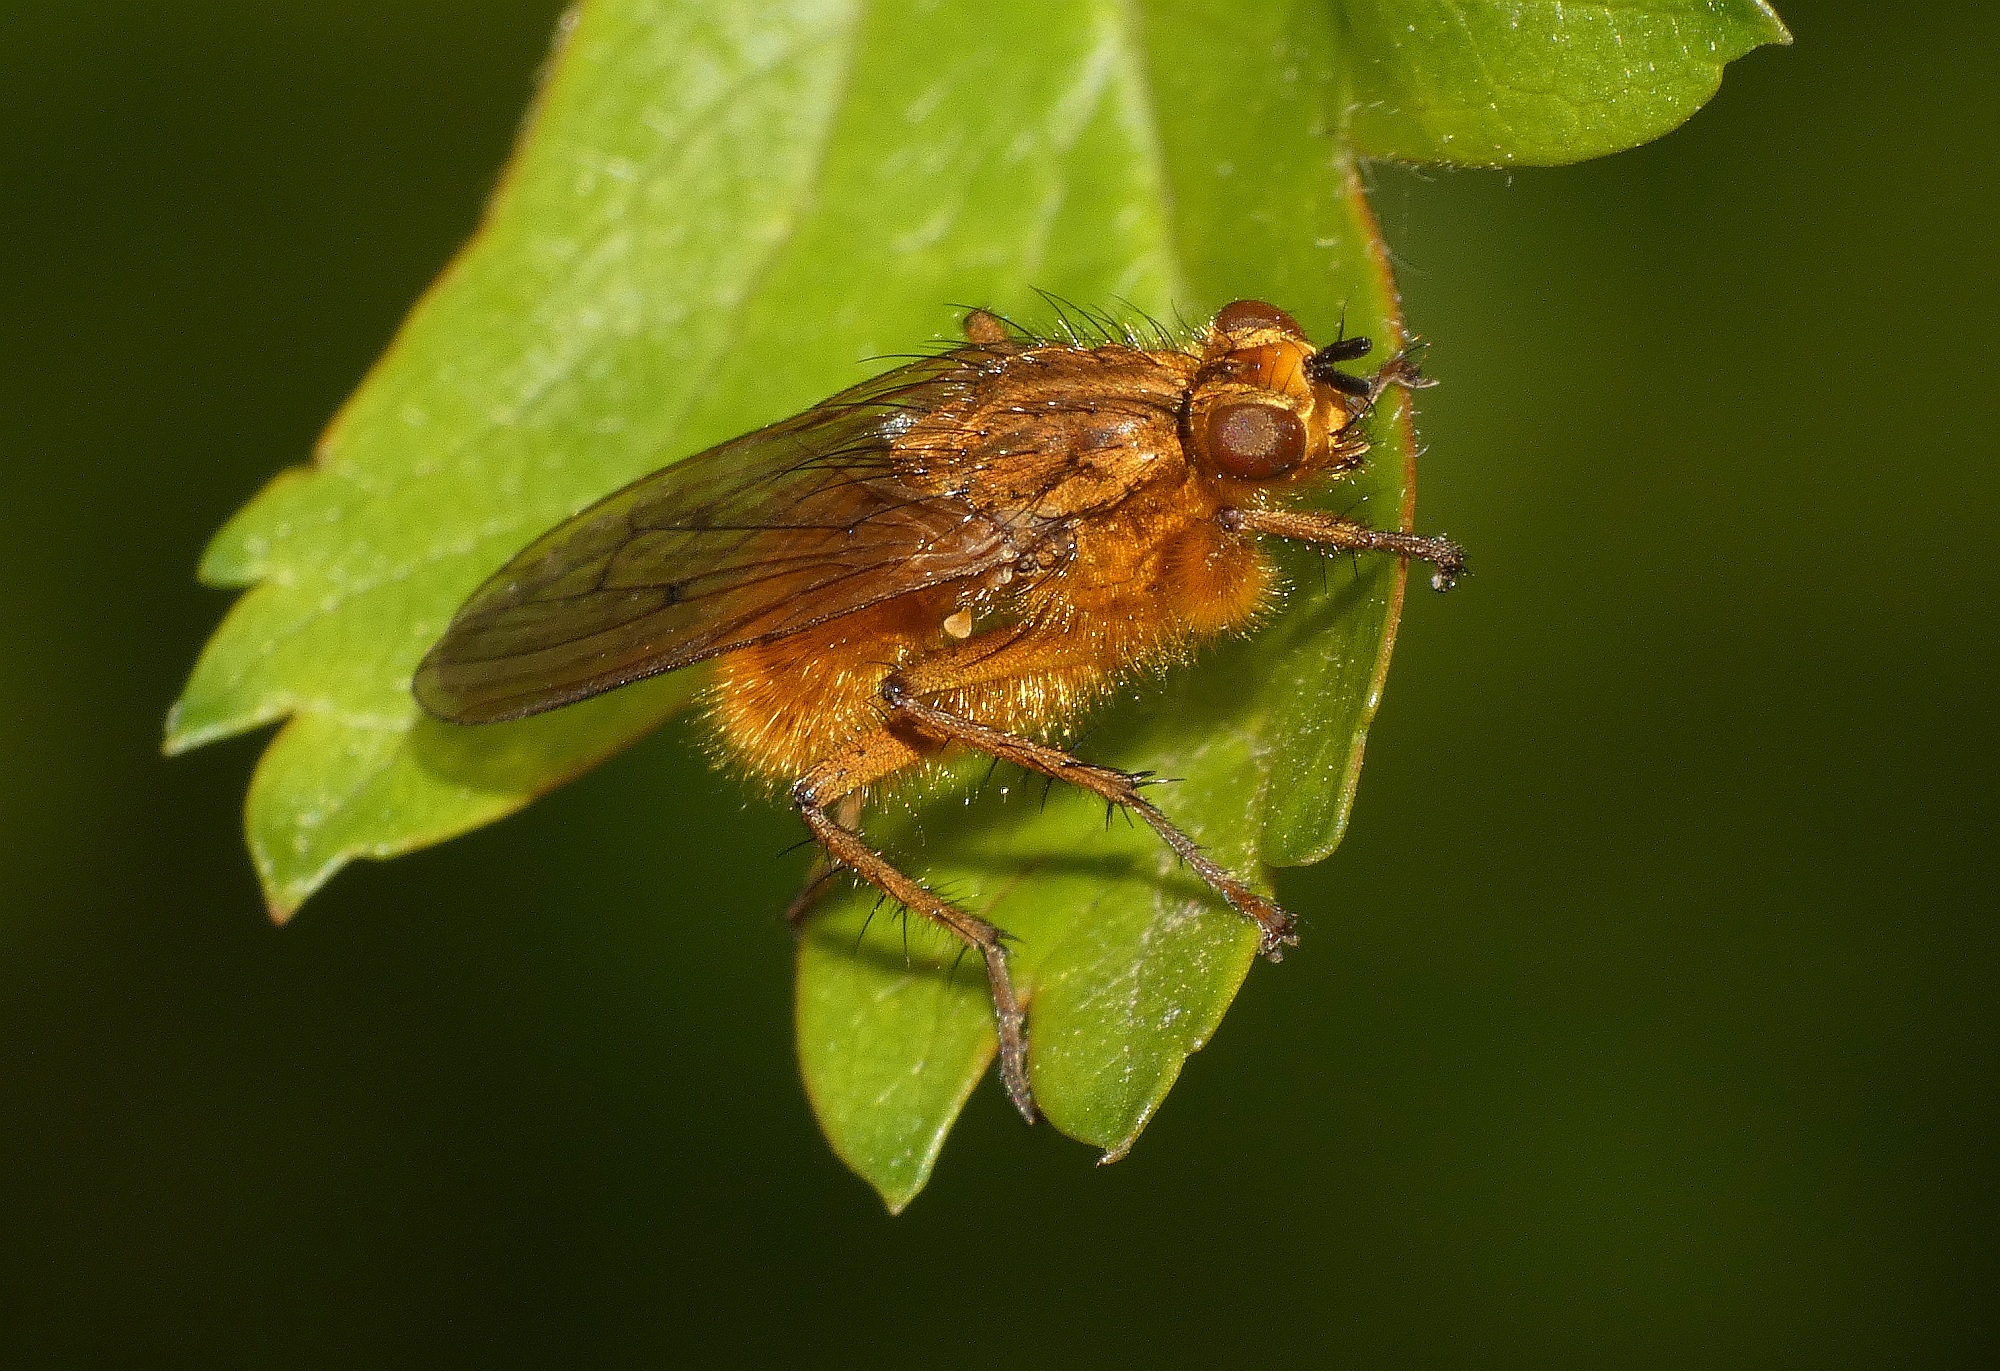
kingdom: Animalia
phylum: Arthropoda
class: Insecta
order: Diptera
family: Scathophagidae
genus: Scathophaga
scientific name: Scathophaga stercoraria
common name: Yellow dung fly
